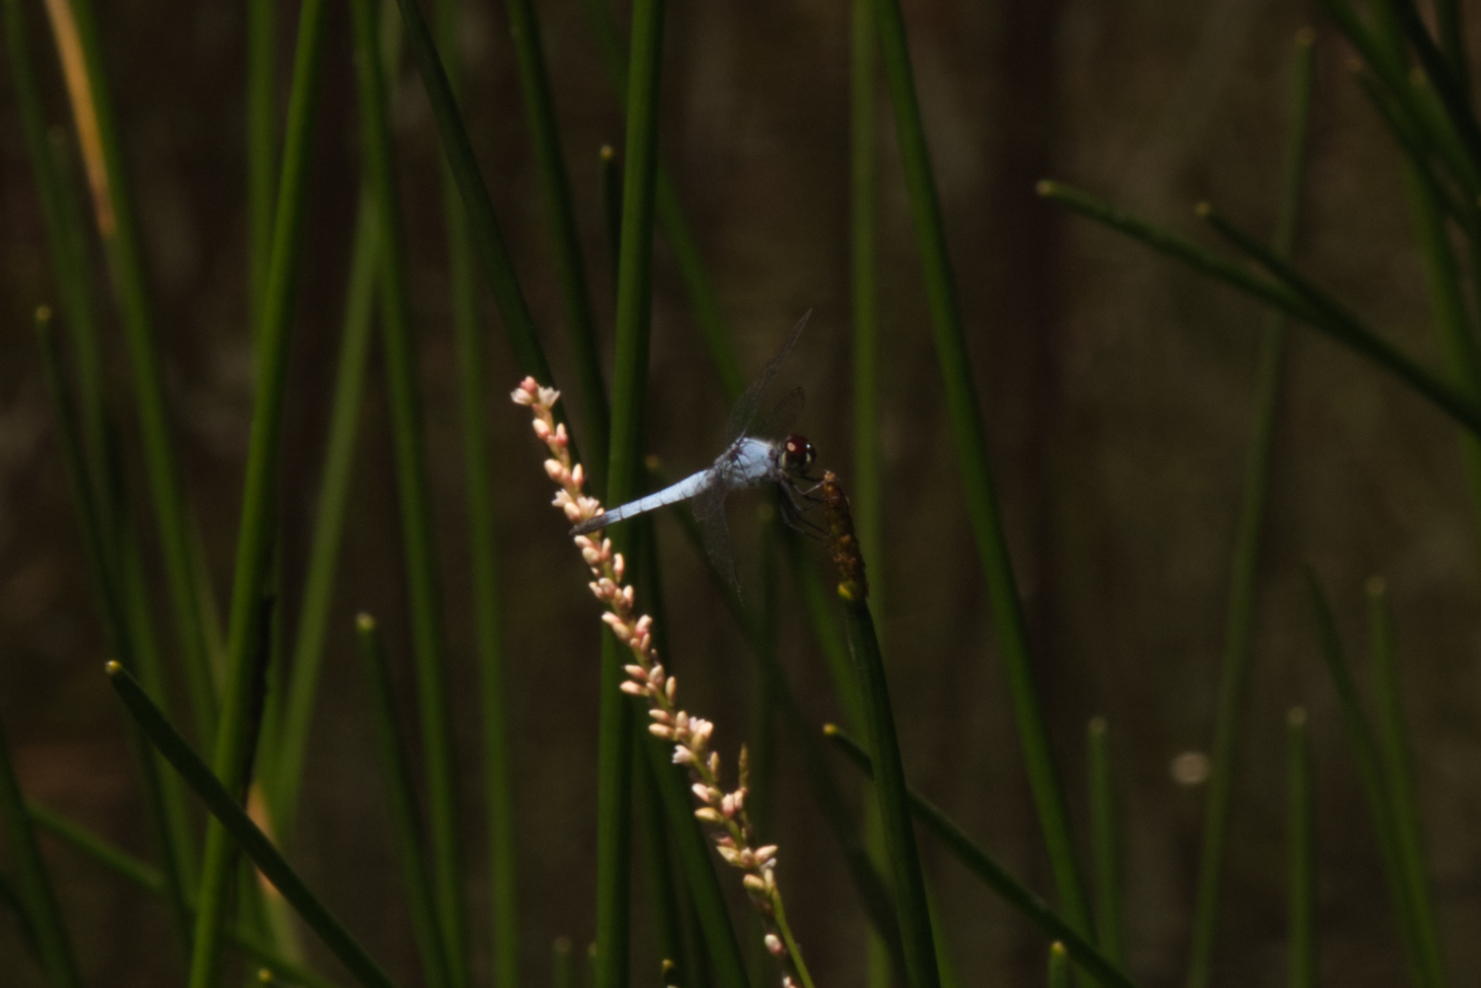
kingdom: Animalia
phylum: Arthropoda
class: Insecta
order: Odonata
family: Libellulidae
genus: Brachydiplax
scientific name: Brachydiplax denticauda
